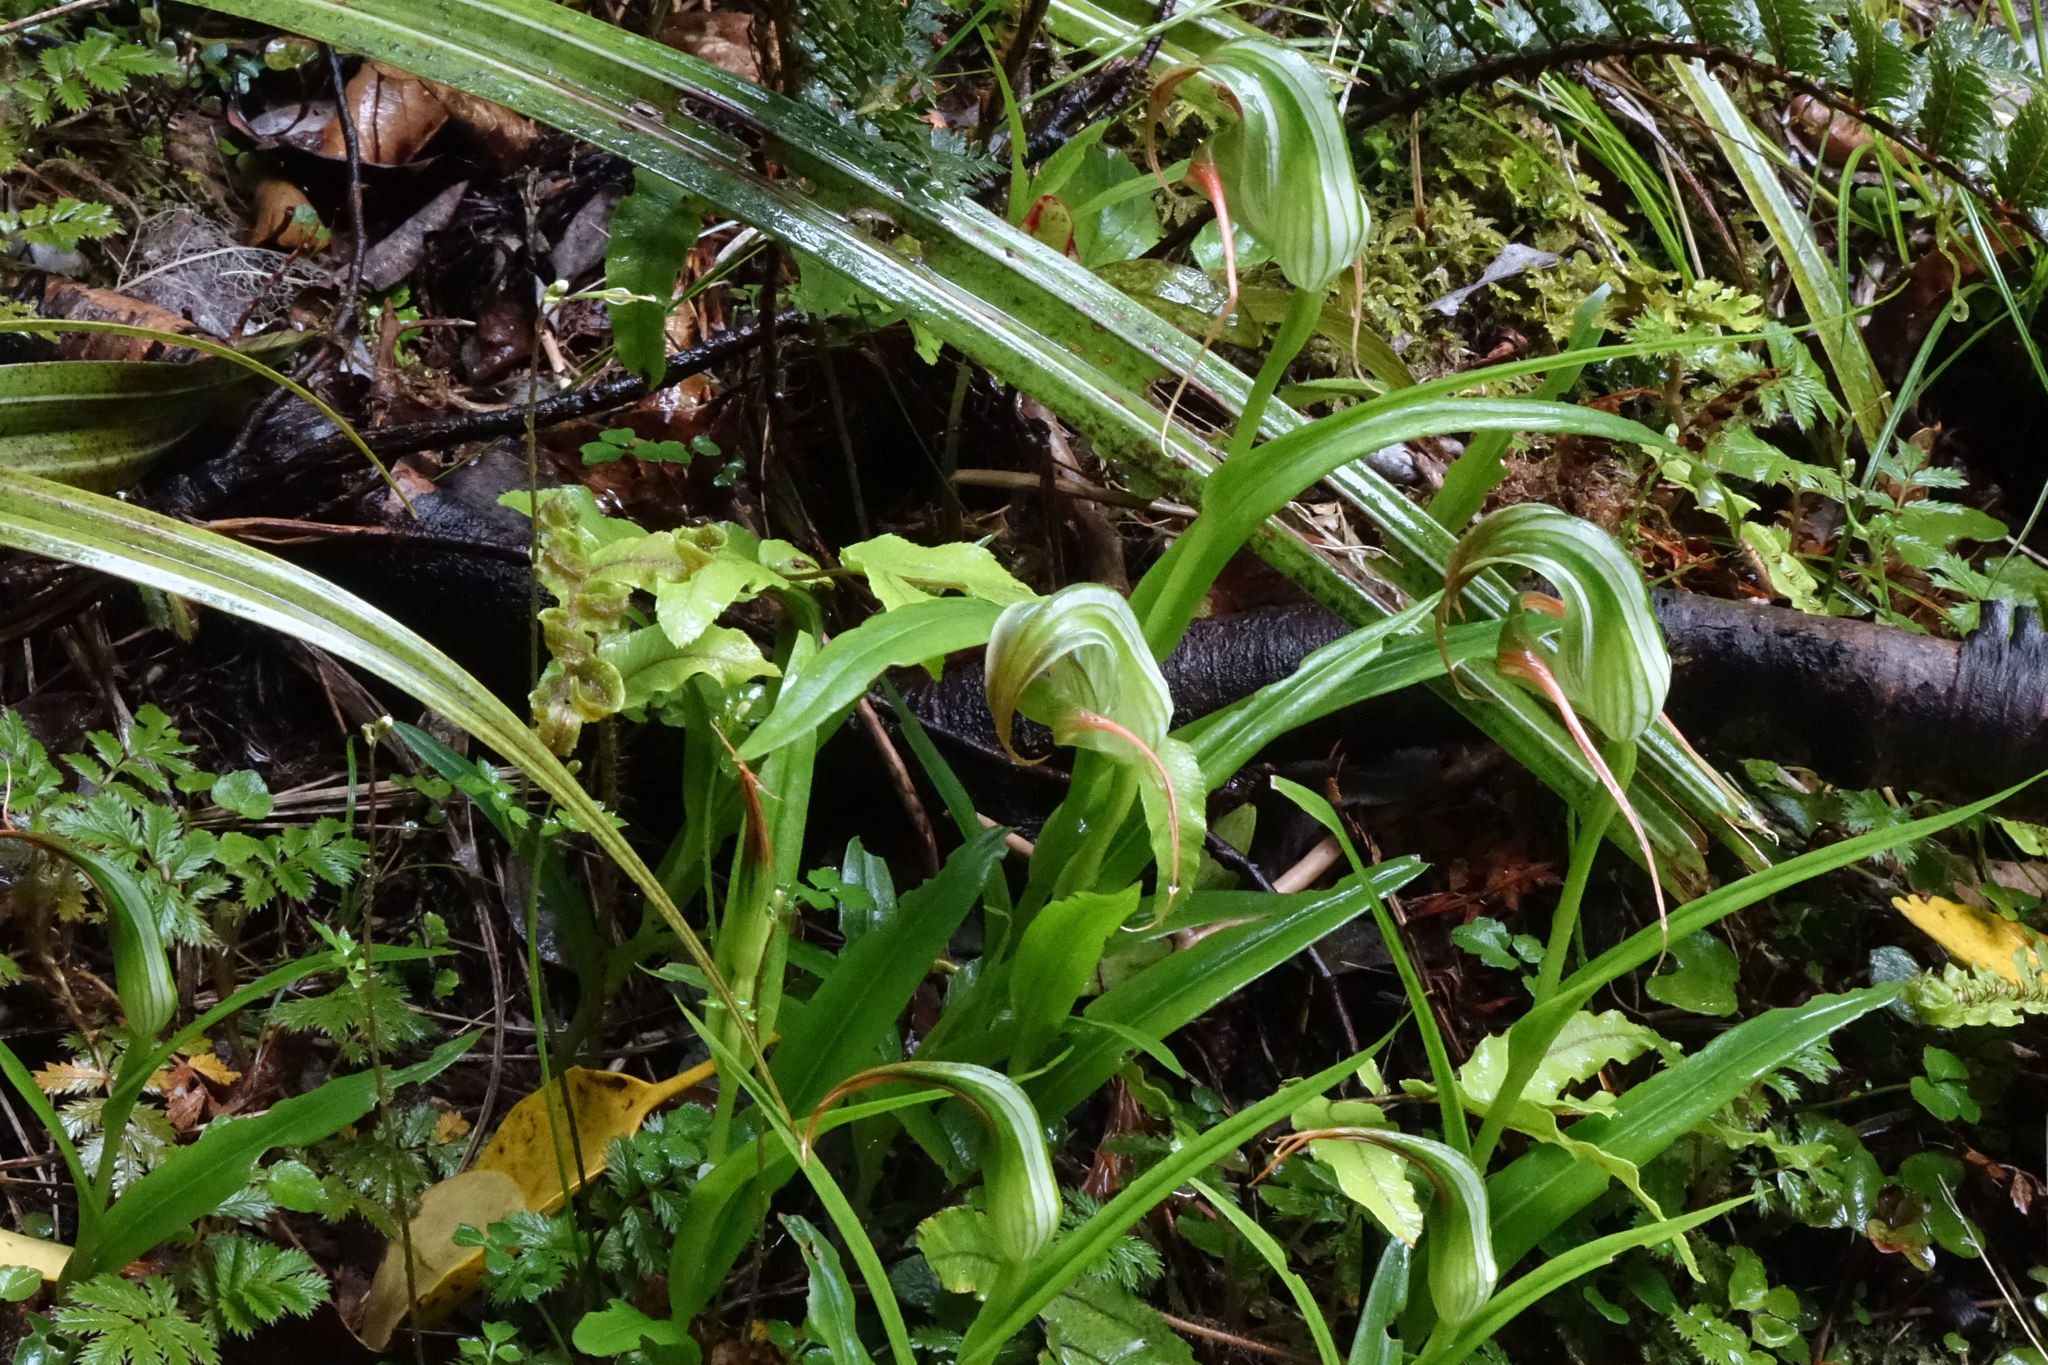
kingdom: Plantae
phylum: Tracheophyta
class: Liliopsida
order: Asparagales
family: Orchidaceae
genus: Pterostylis
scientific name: Pterostylis patens
